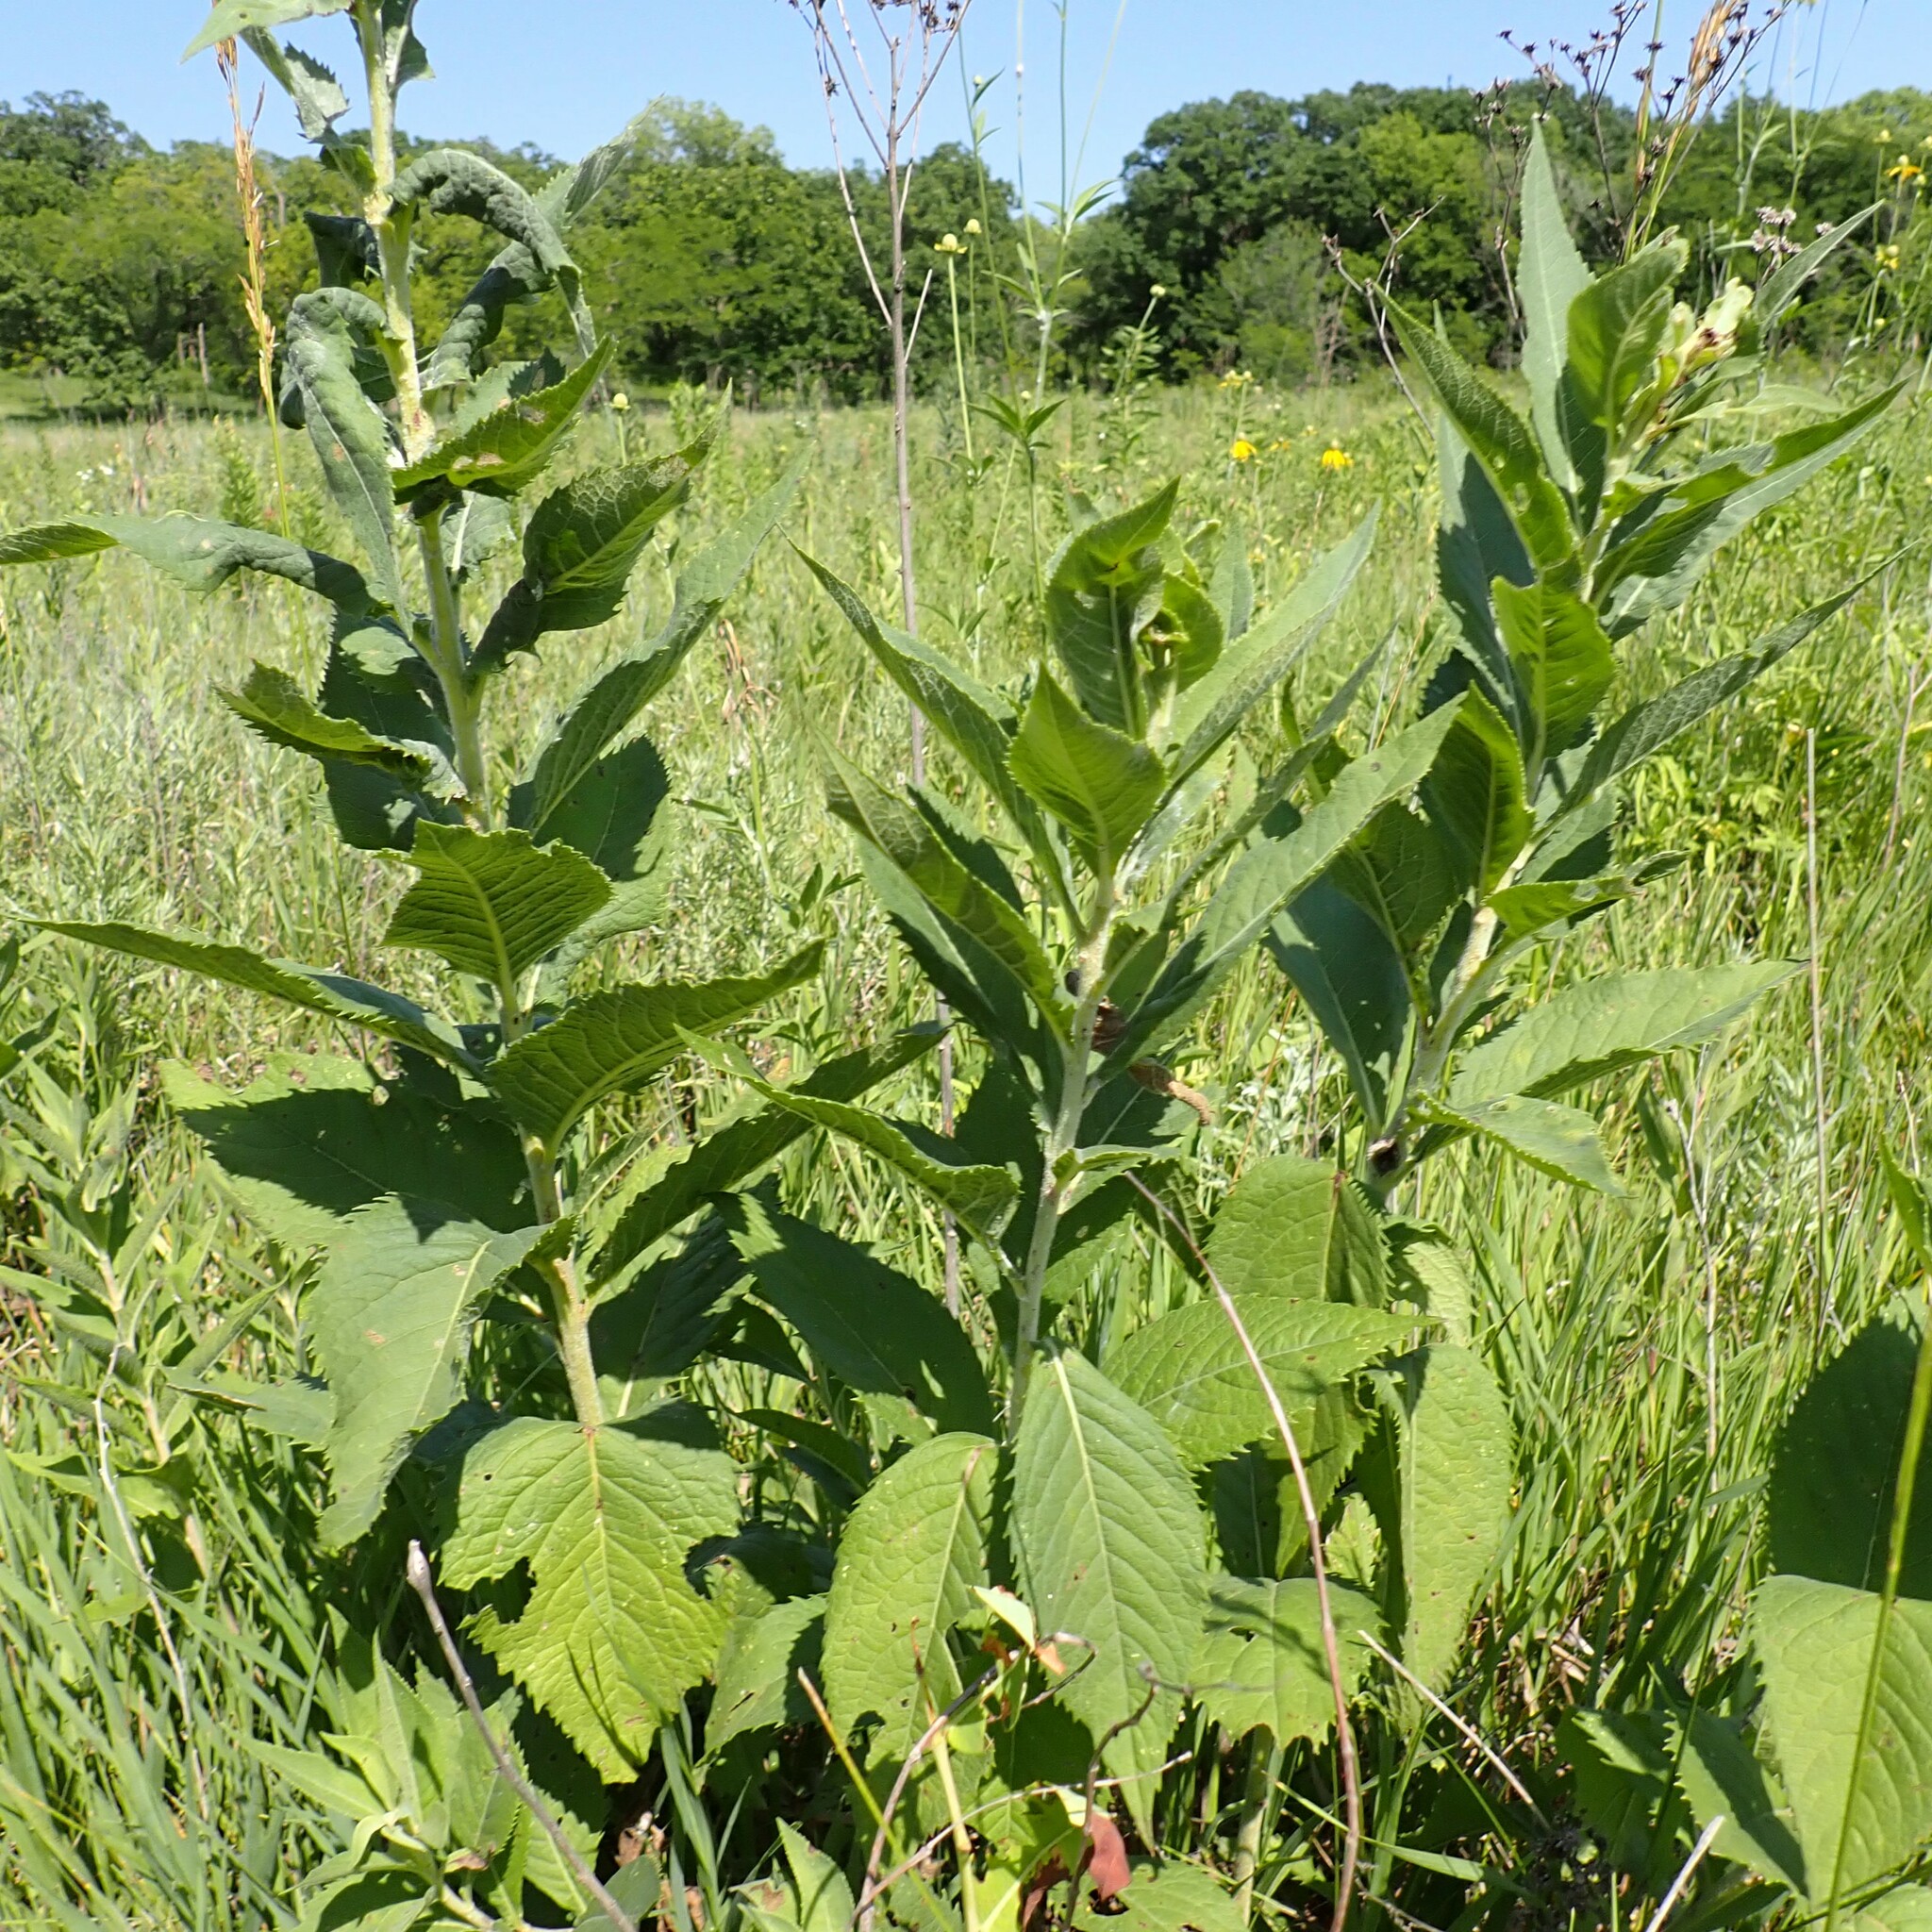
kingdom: Plantae
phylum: Tracheophyta
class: Magnoliopsida
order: Asterales
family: Asteraceae
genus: Vernonia
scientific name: Vernonia baldwinii
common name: Western ironweed
